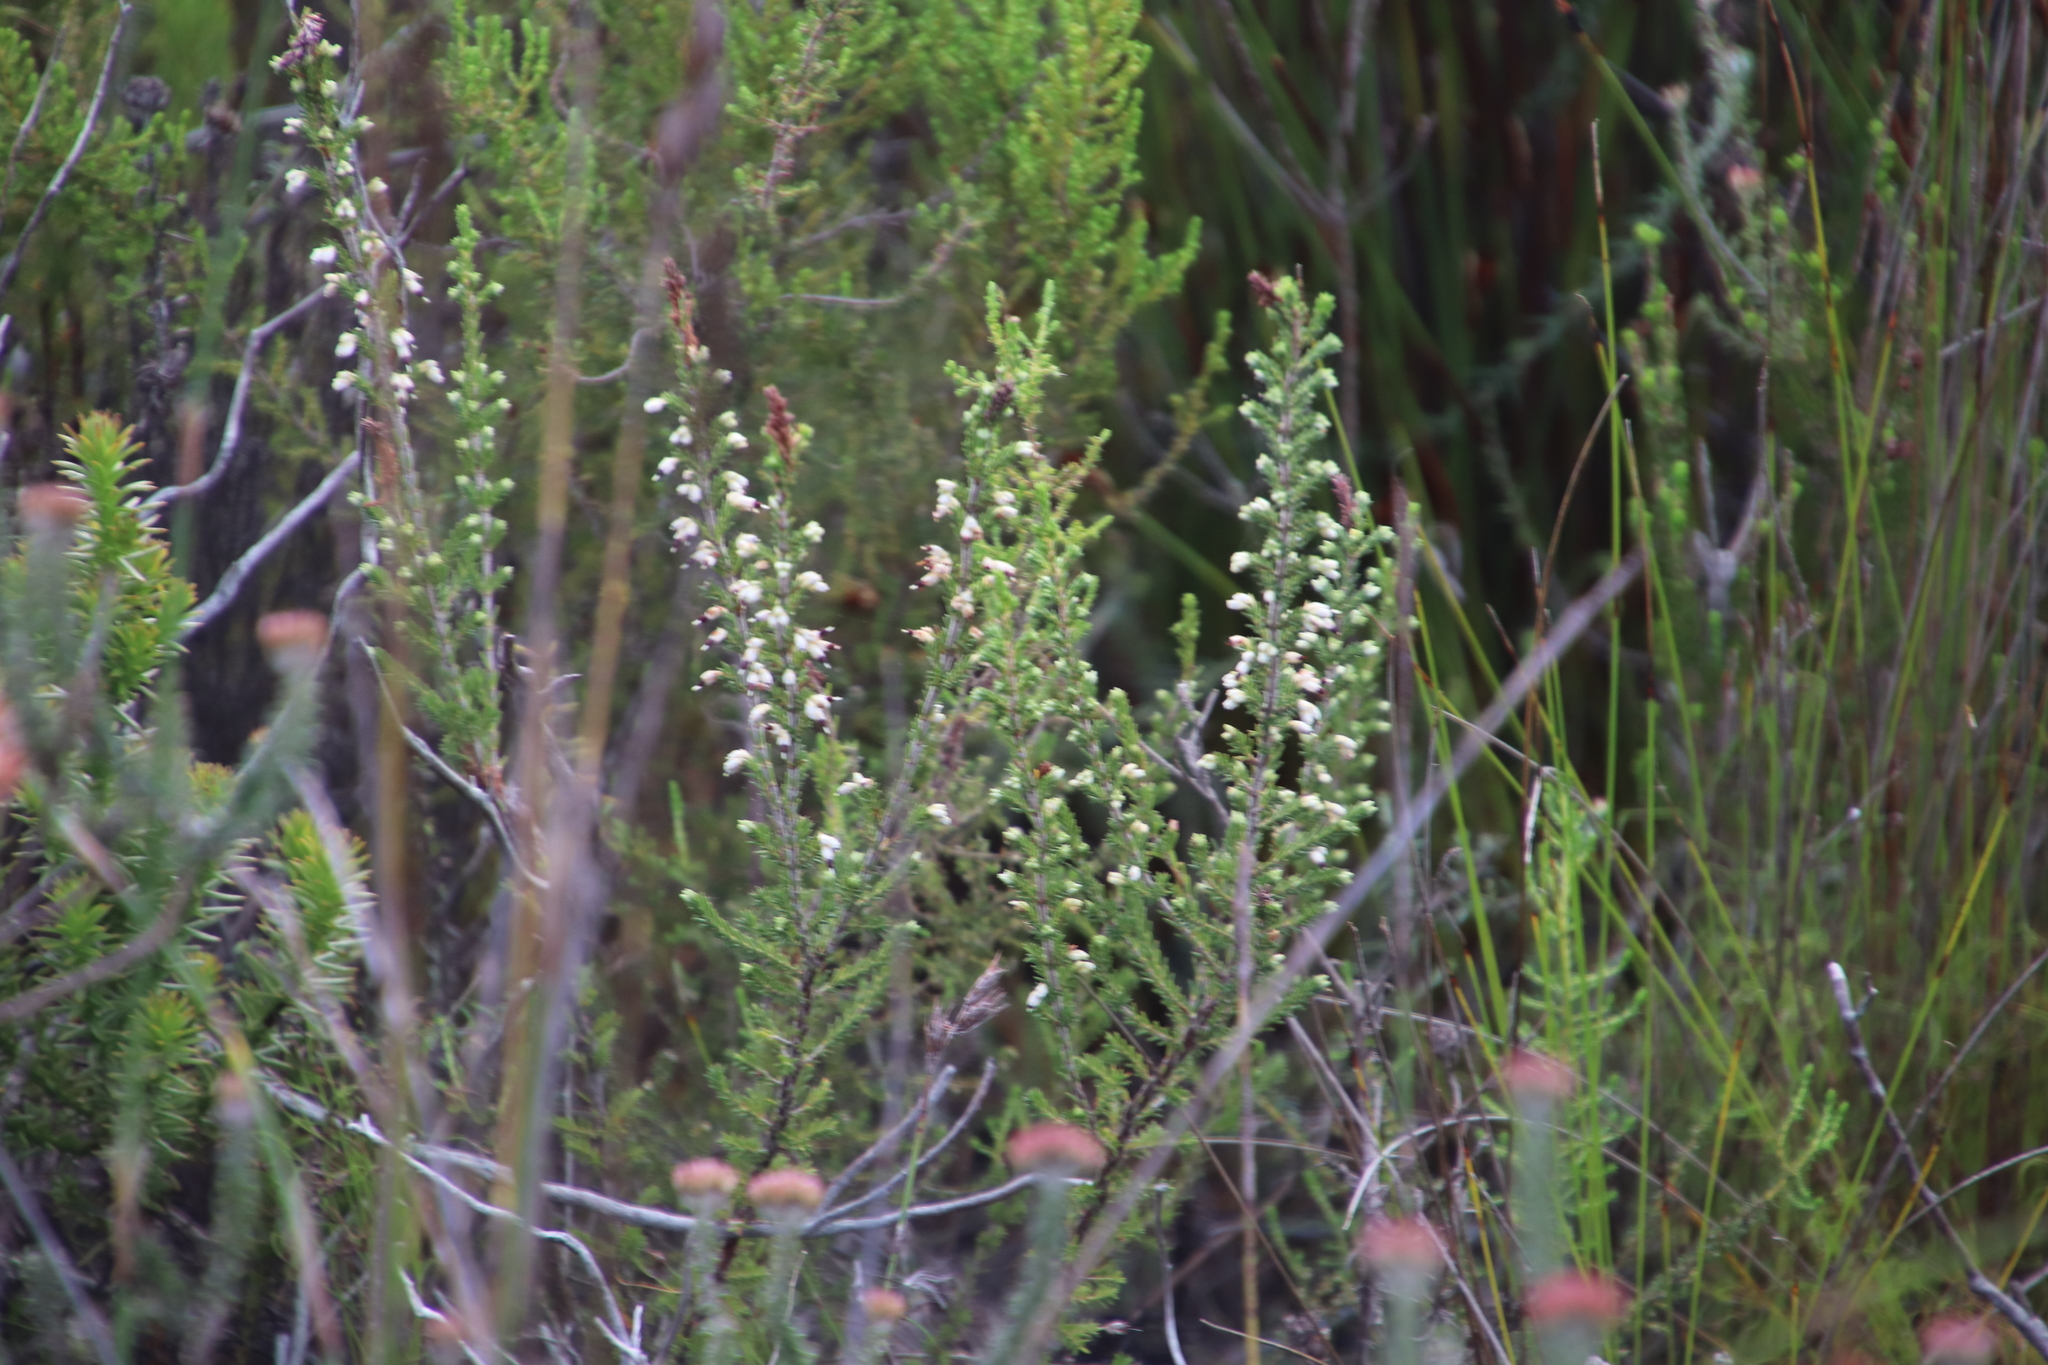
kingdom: Plantae
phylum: Tracheophyta
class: Magnoliopsida
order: Ericales
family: Ericaceae
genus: Erica
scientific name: Erica imbricata
